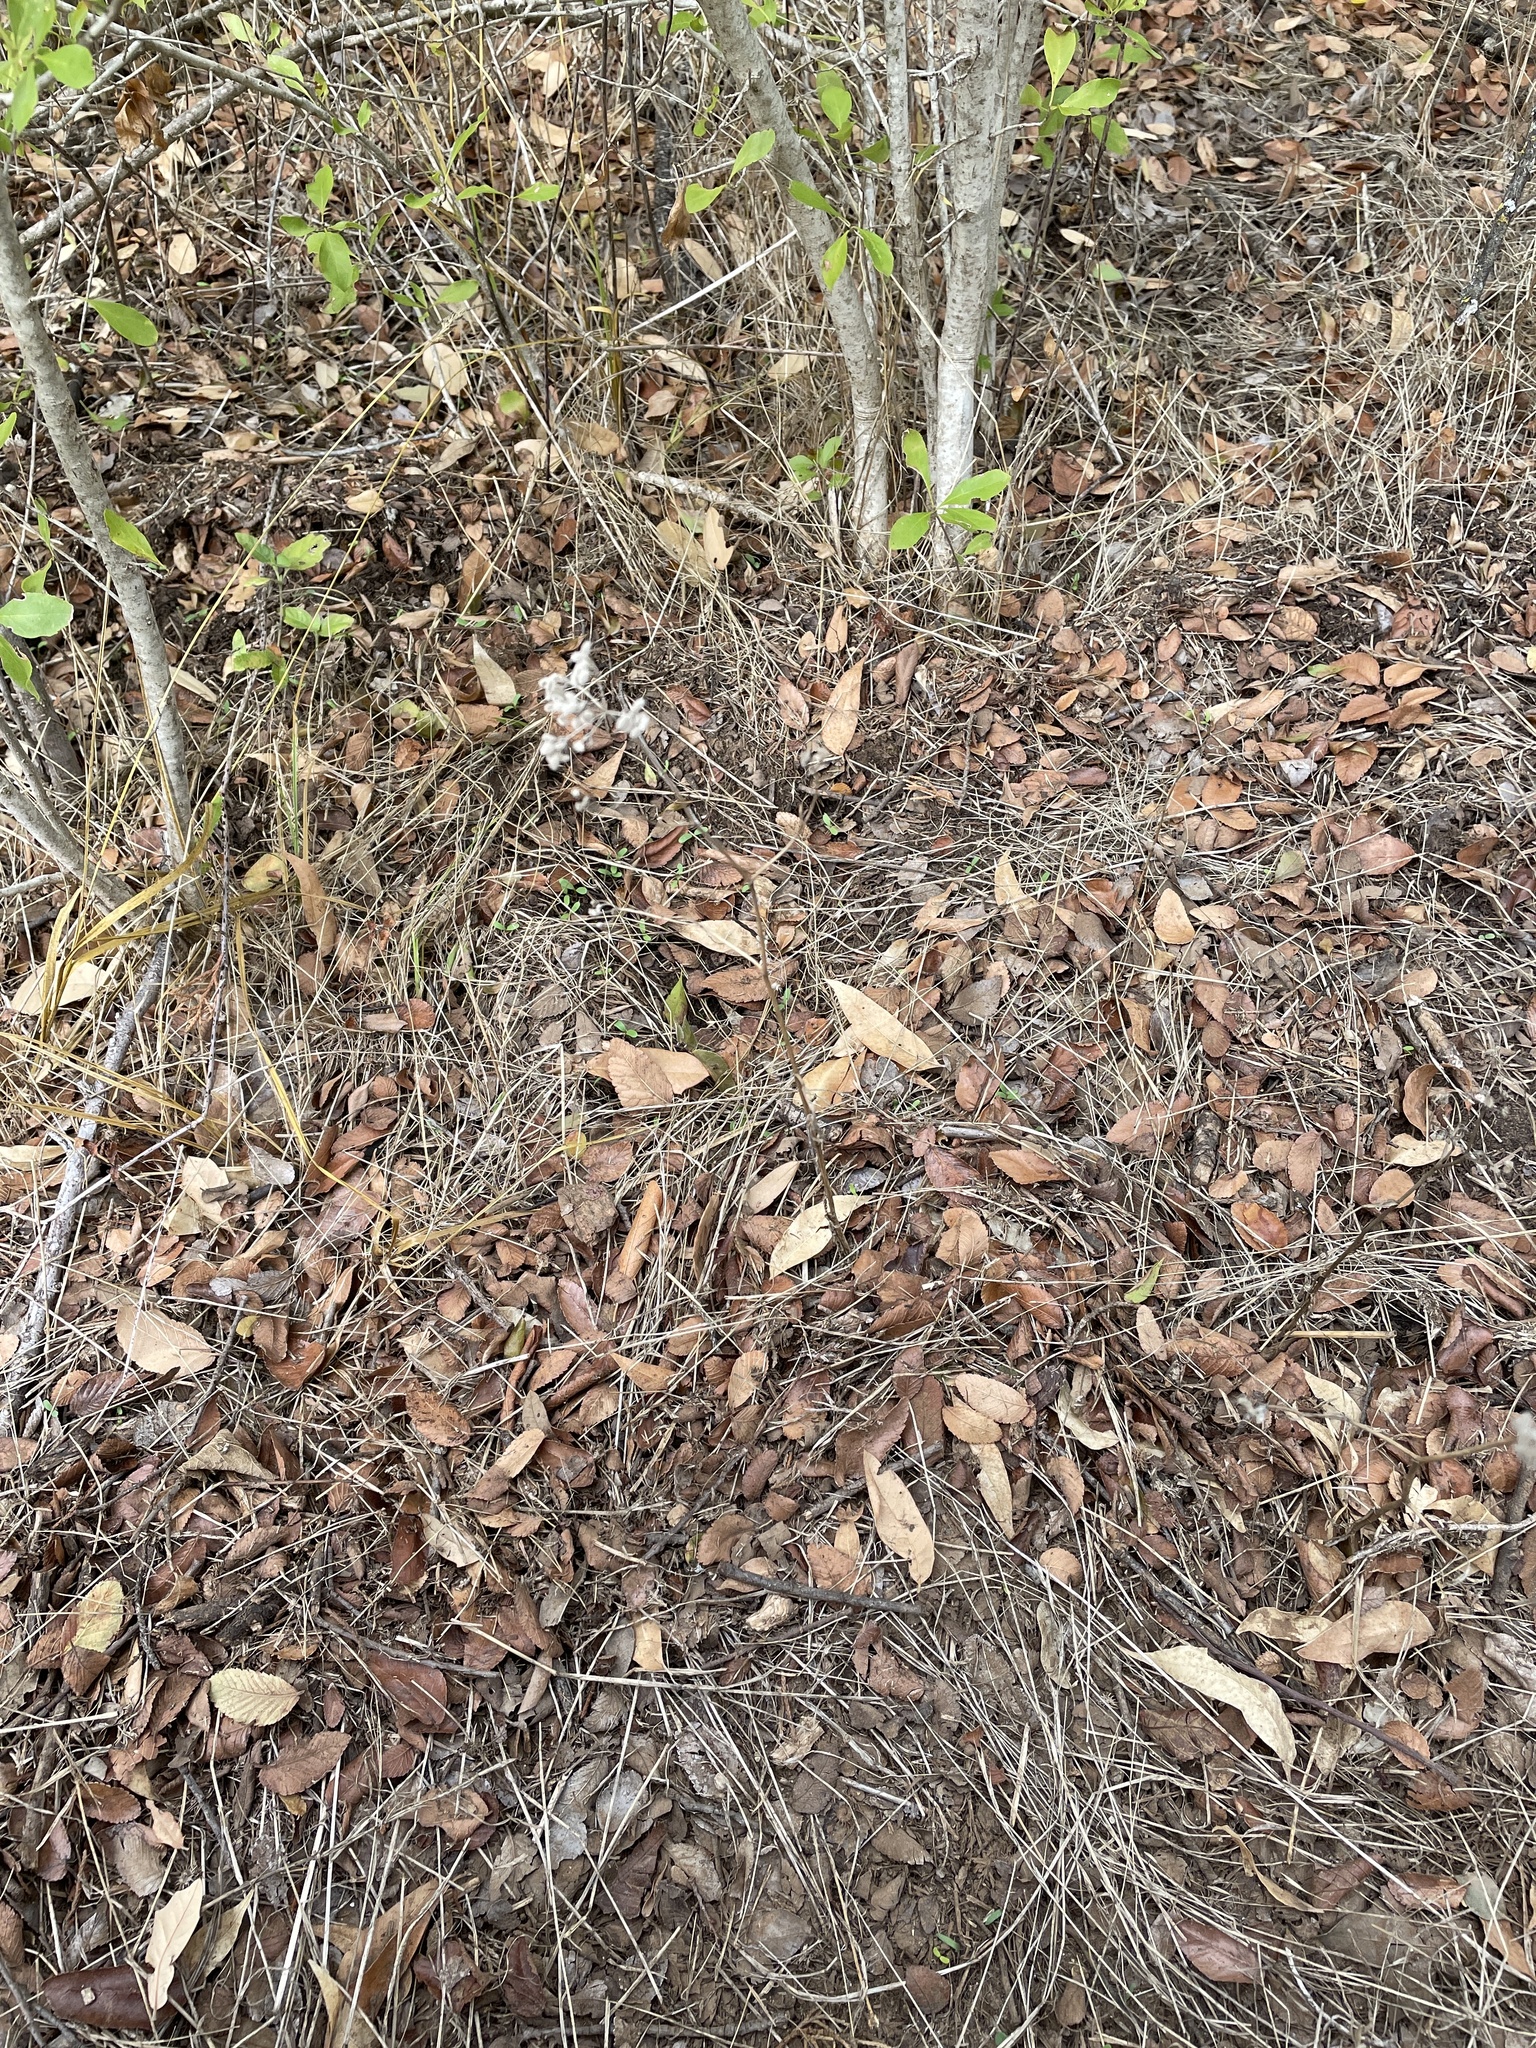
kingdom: Plantae
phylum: Tracheophyta
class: Magnoliopsida
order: Apiales
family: Apiaceae
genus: Torilis
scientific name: Torilis arvensis
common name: Spreading hedge-parsley
